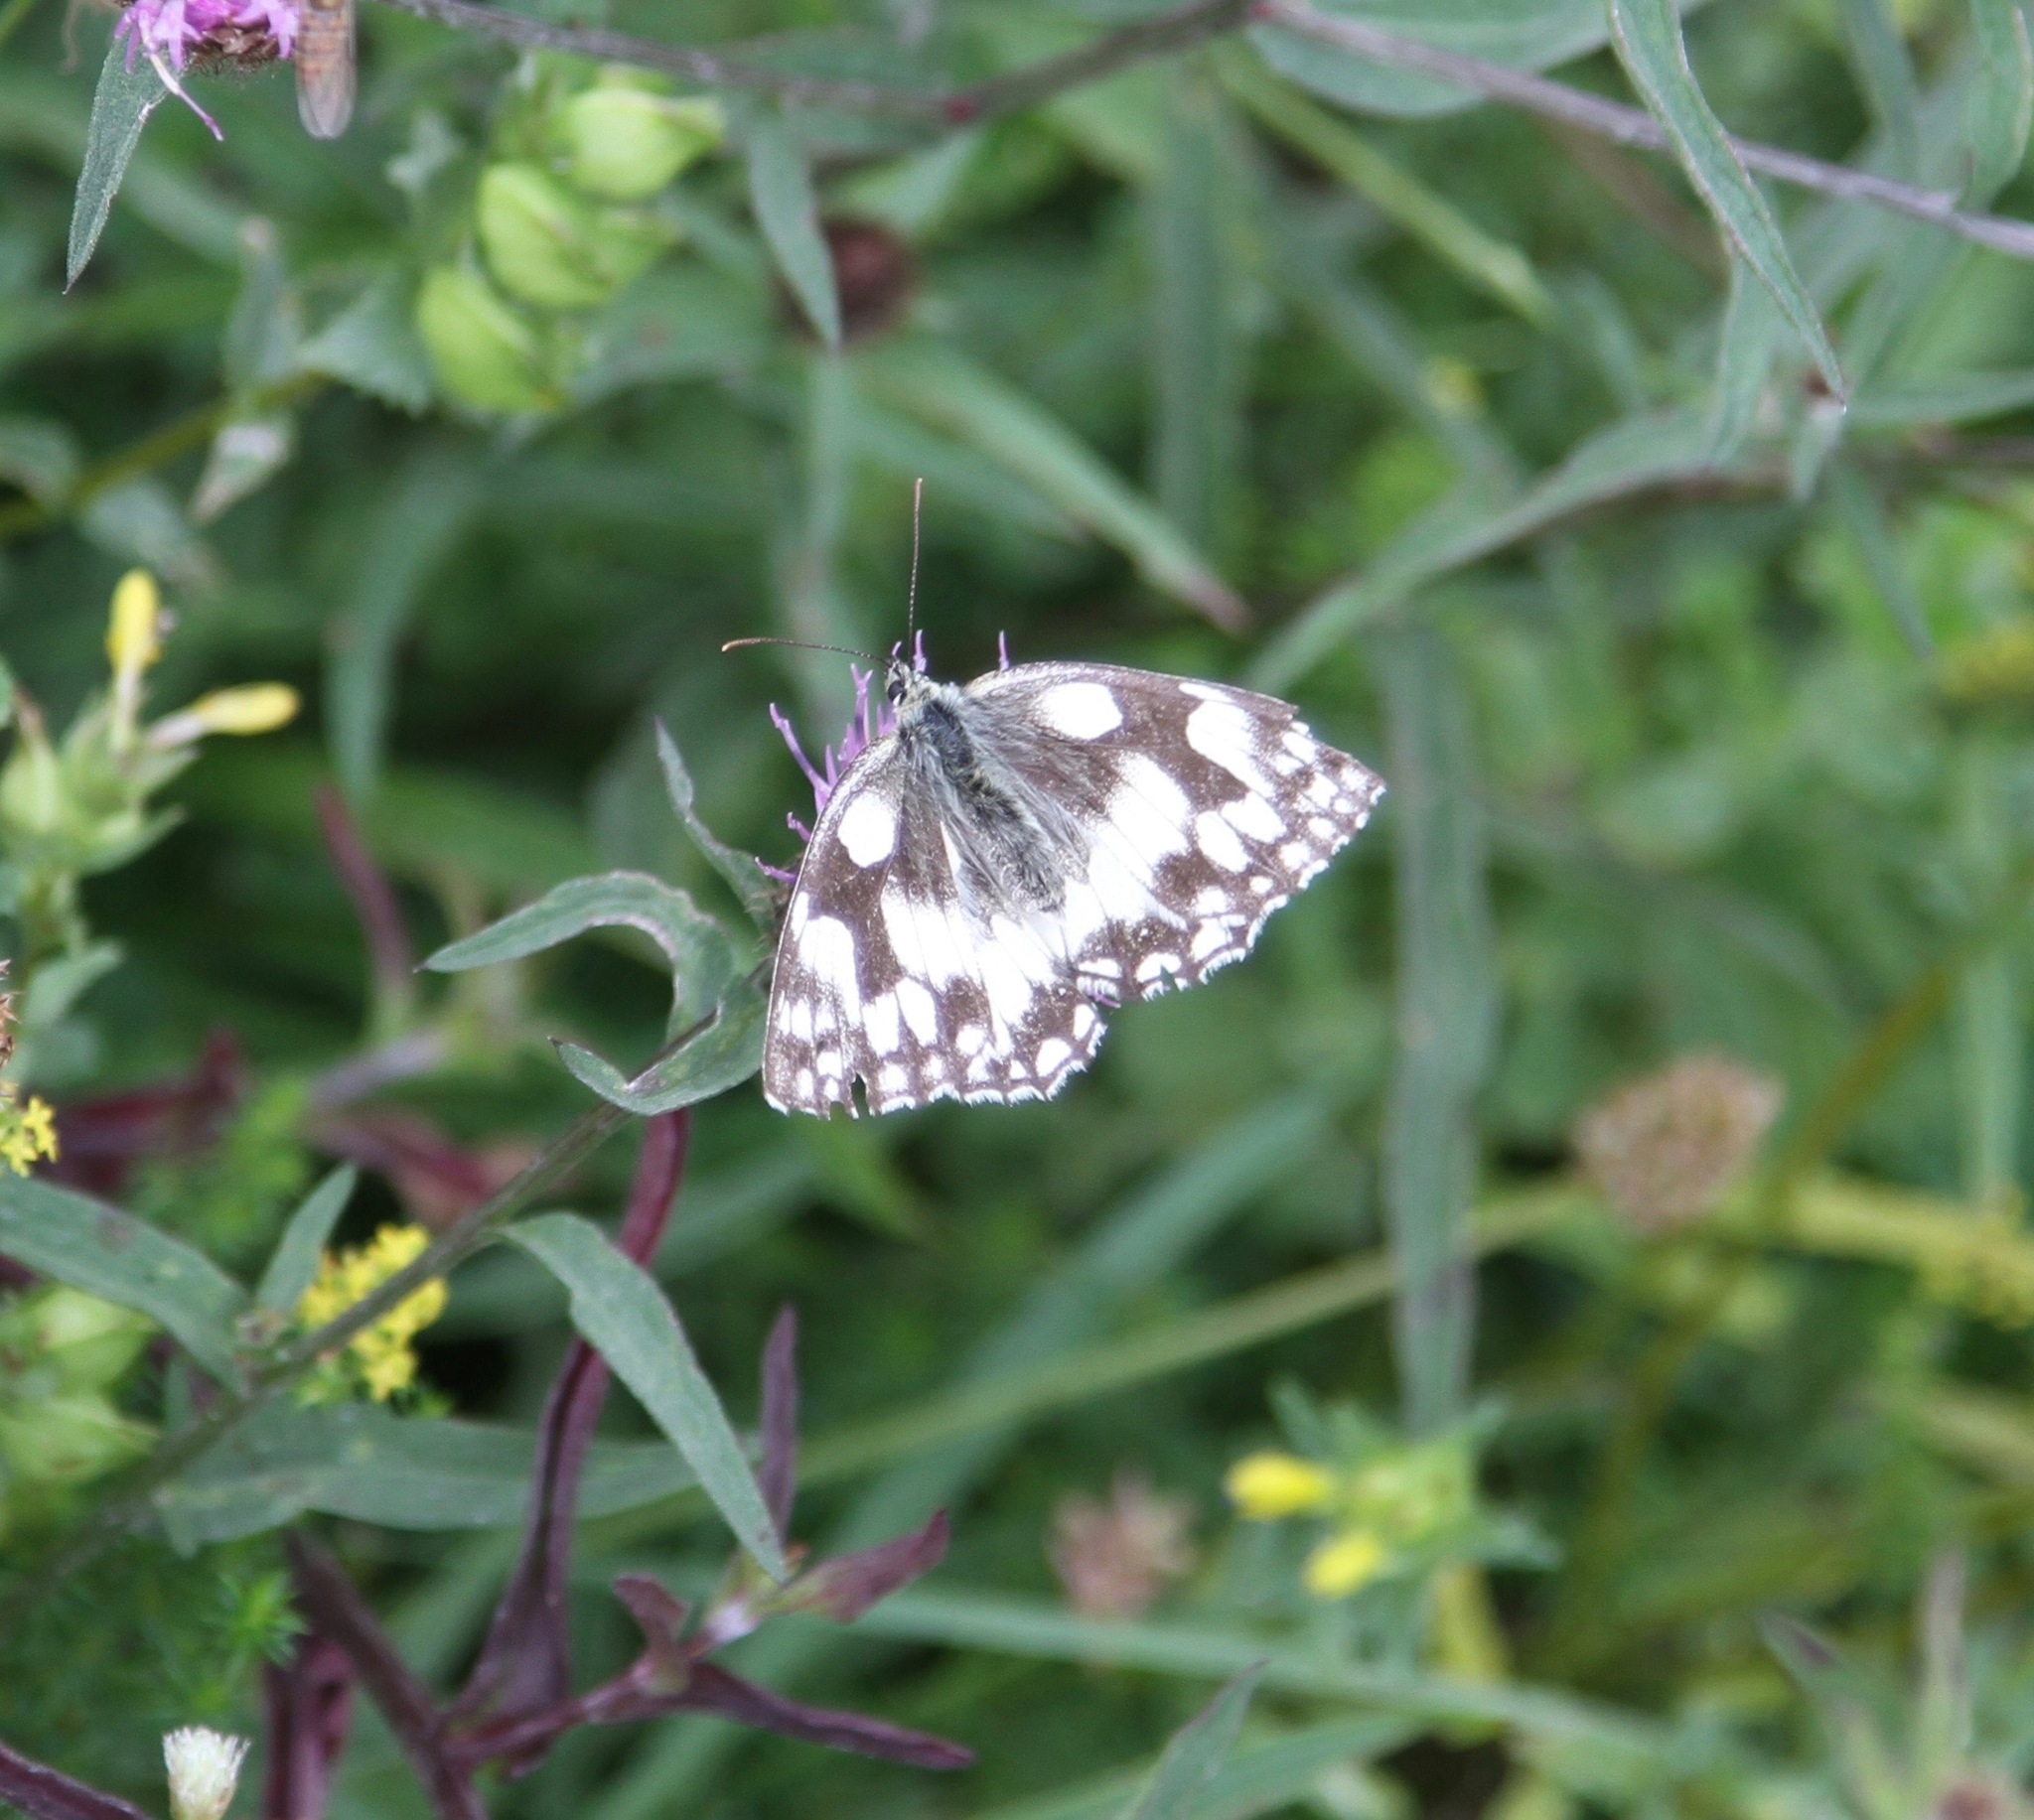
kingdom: Animalia
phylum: Arthropoda
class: Insecta
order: Lepidoptera
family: Nymphalidae
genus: Melanargia
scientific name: Melanargia galathea
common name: Marbled white
